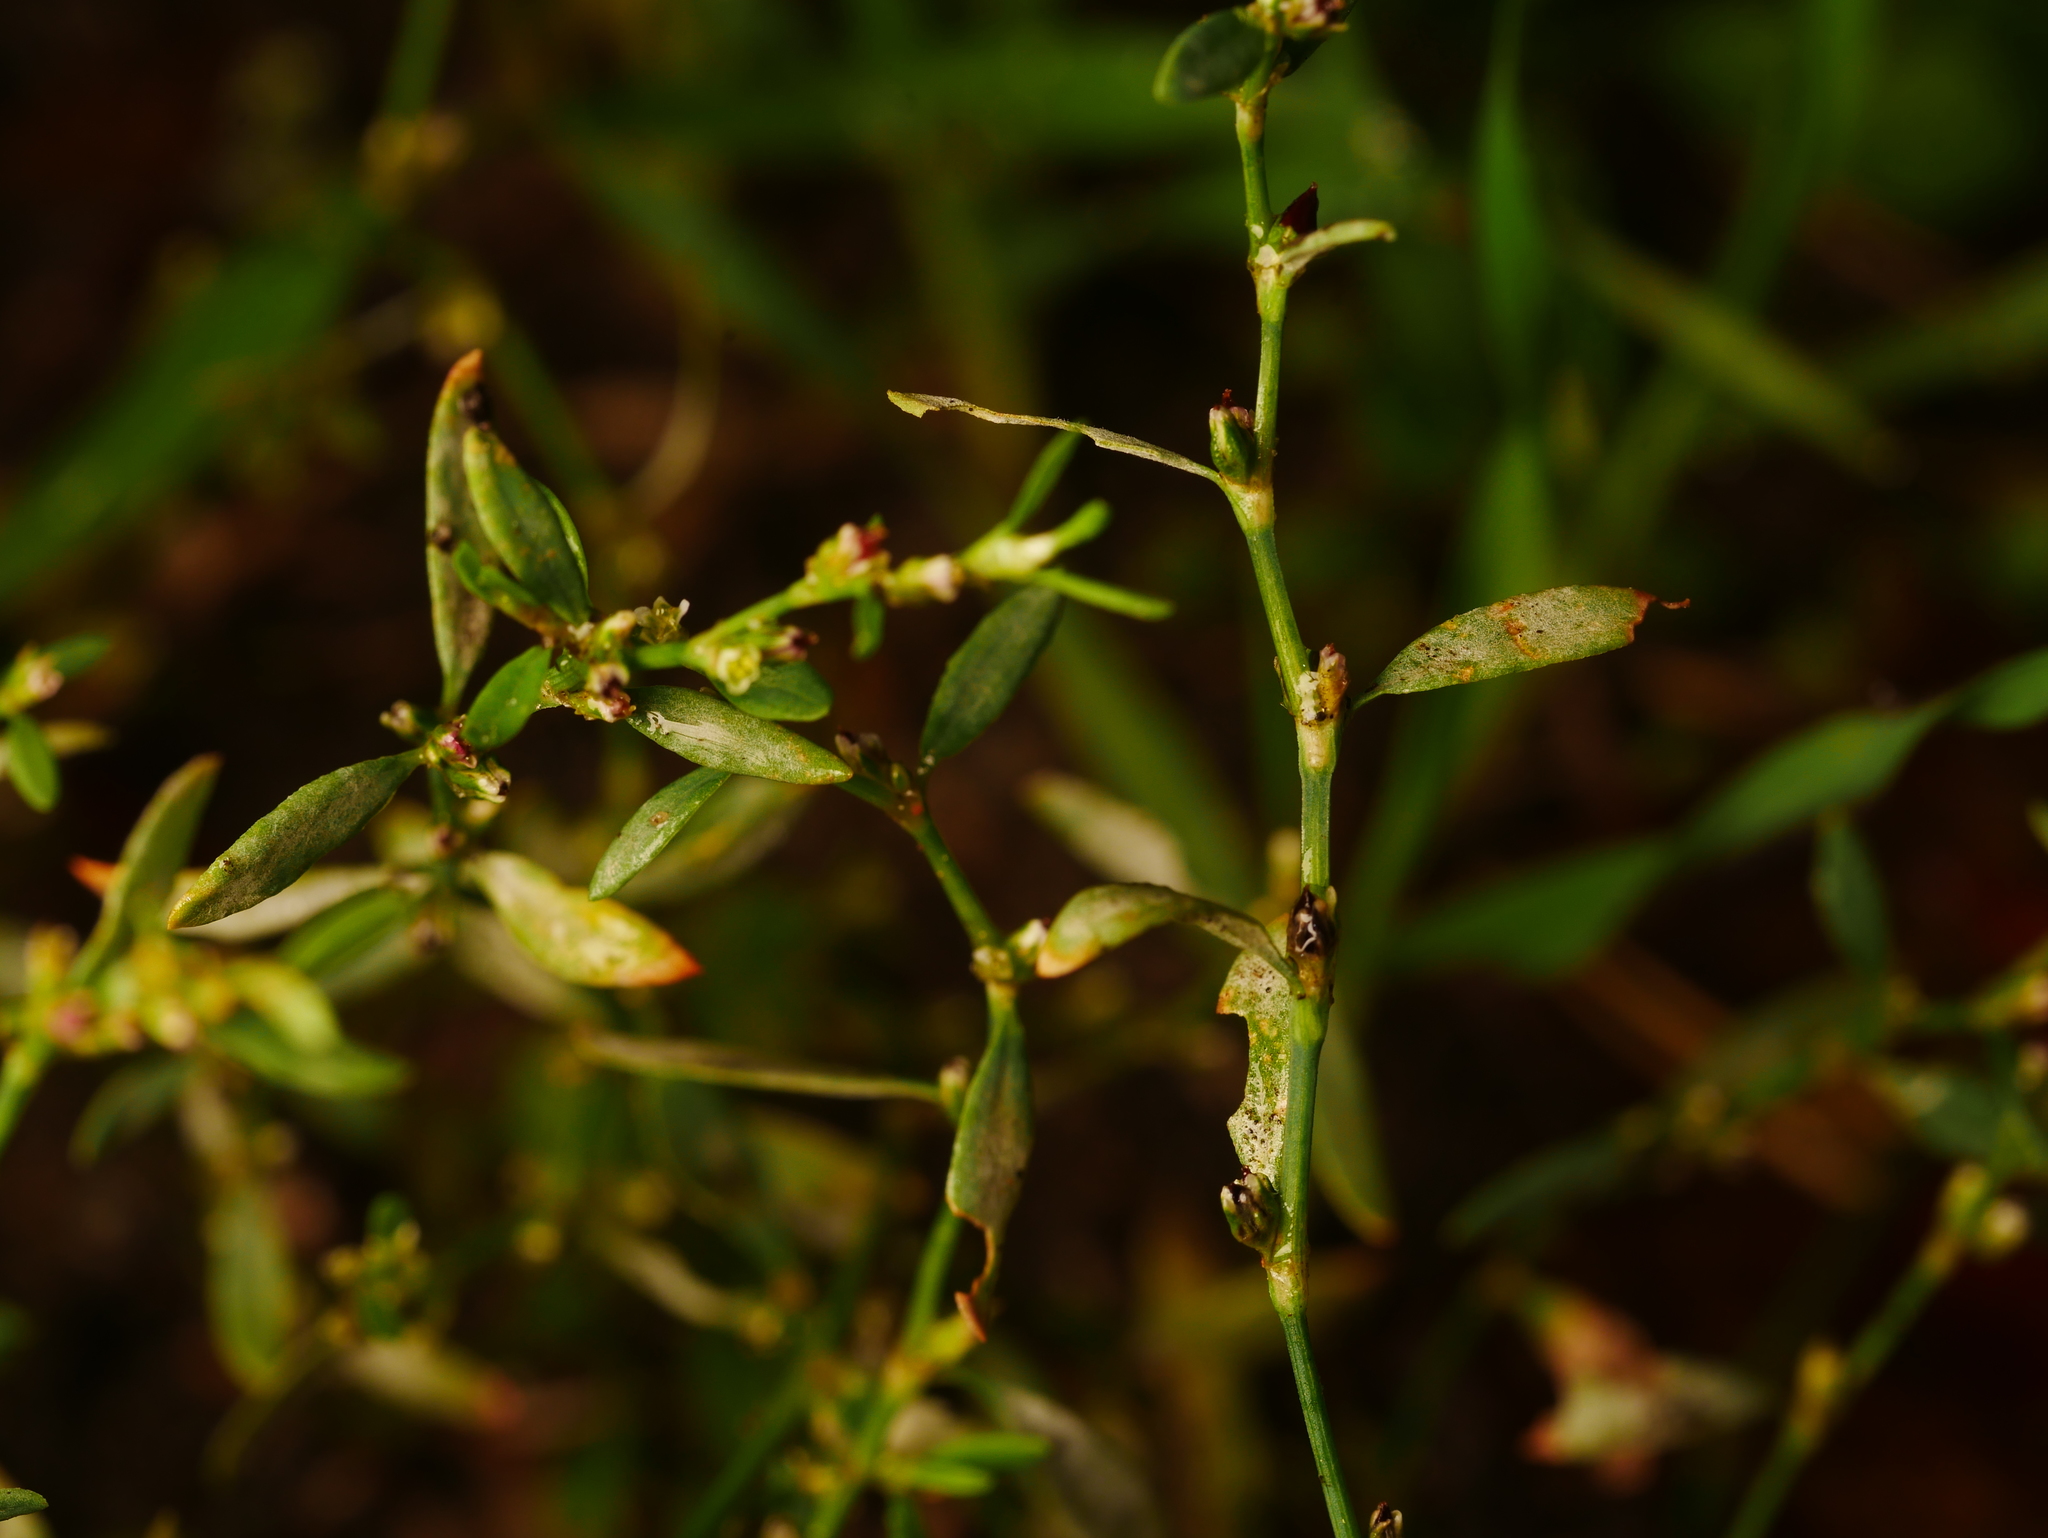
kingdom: Plantae
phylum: Tracheophyta
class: Magnoliopsida
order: Caryophyllales
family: Polygonaceae
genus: Polygonum
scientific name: Polygonum aviculare
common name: Prostrate knotweed
